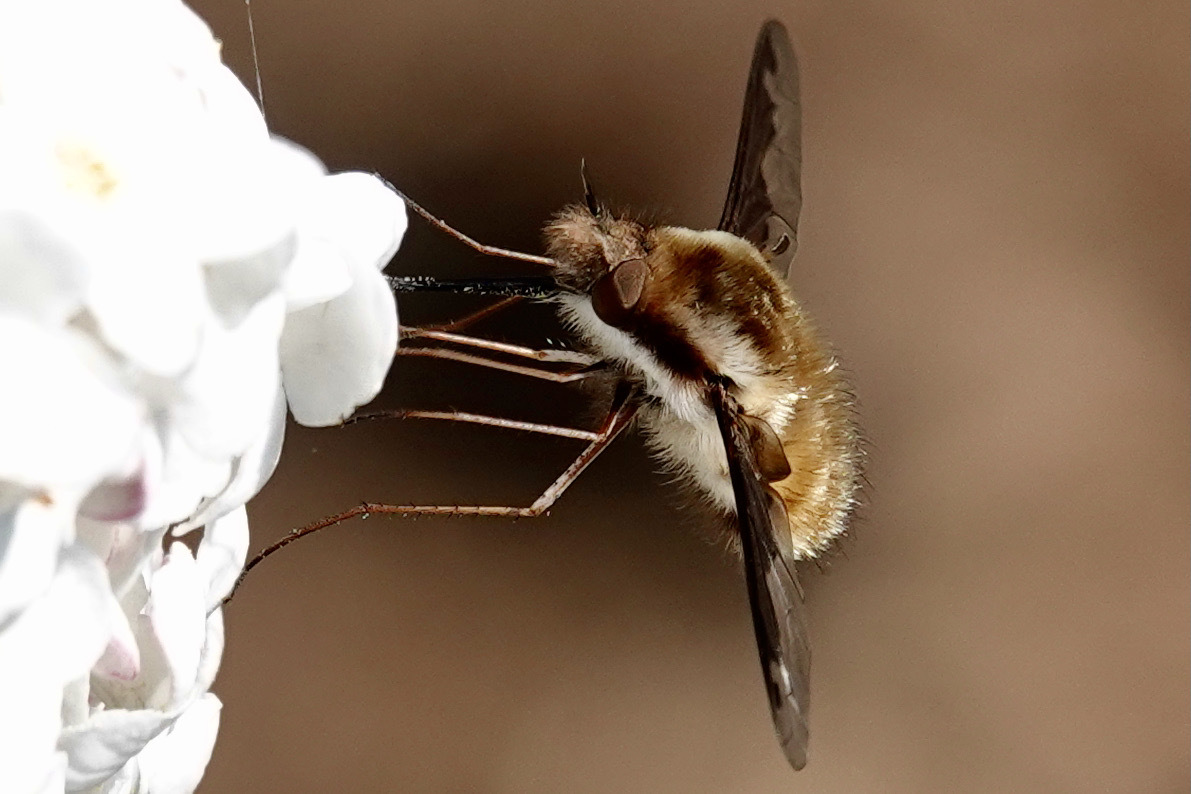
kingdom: Animalia
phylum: Arthropoda
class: Insecta
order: Diptera
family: Bombyliidae
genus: Bombylius
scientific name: Bombylius major
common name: Bee fly
